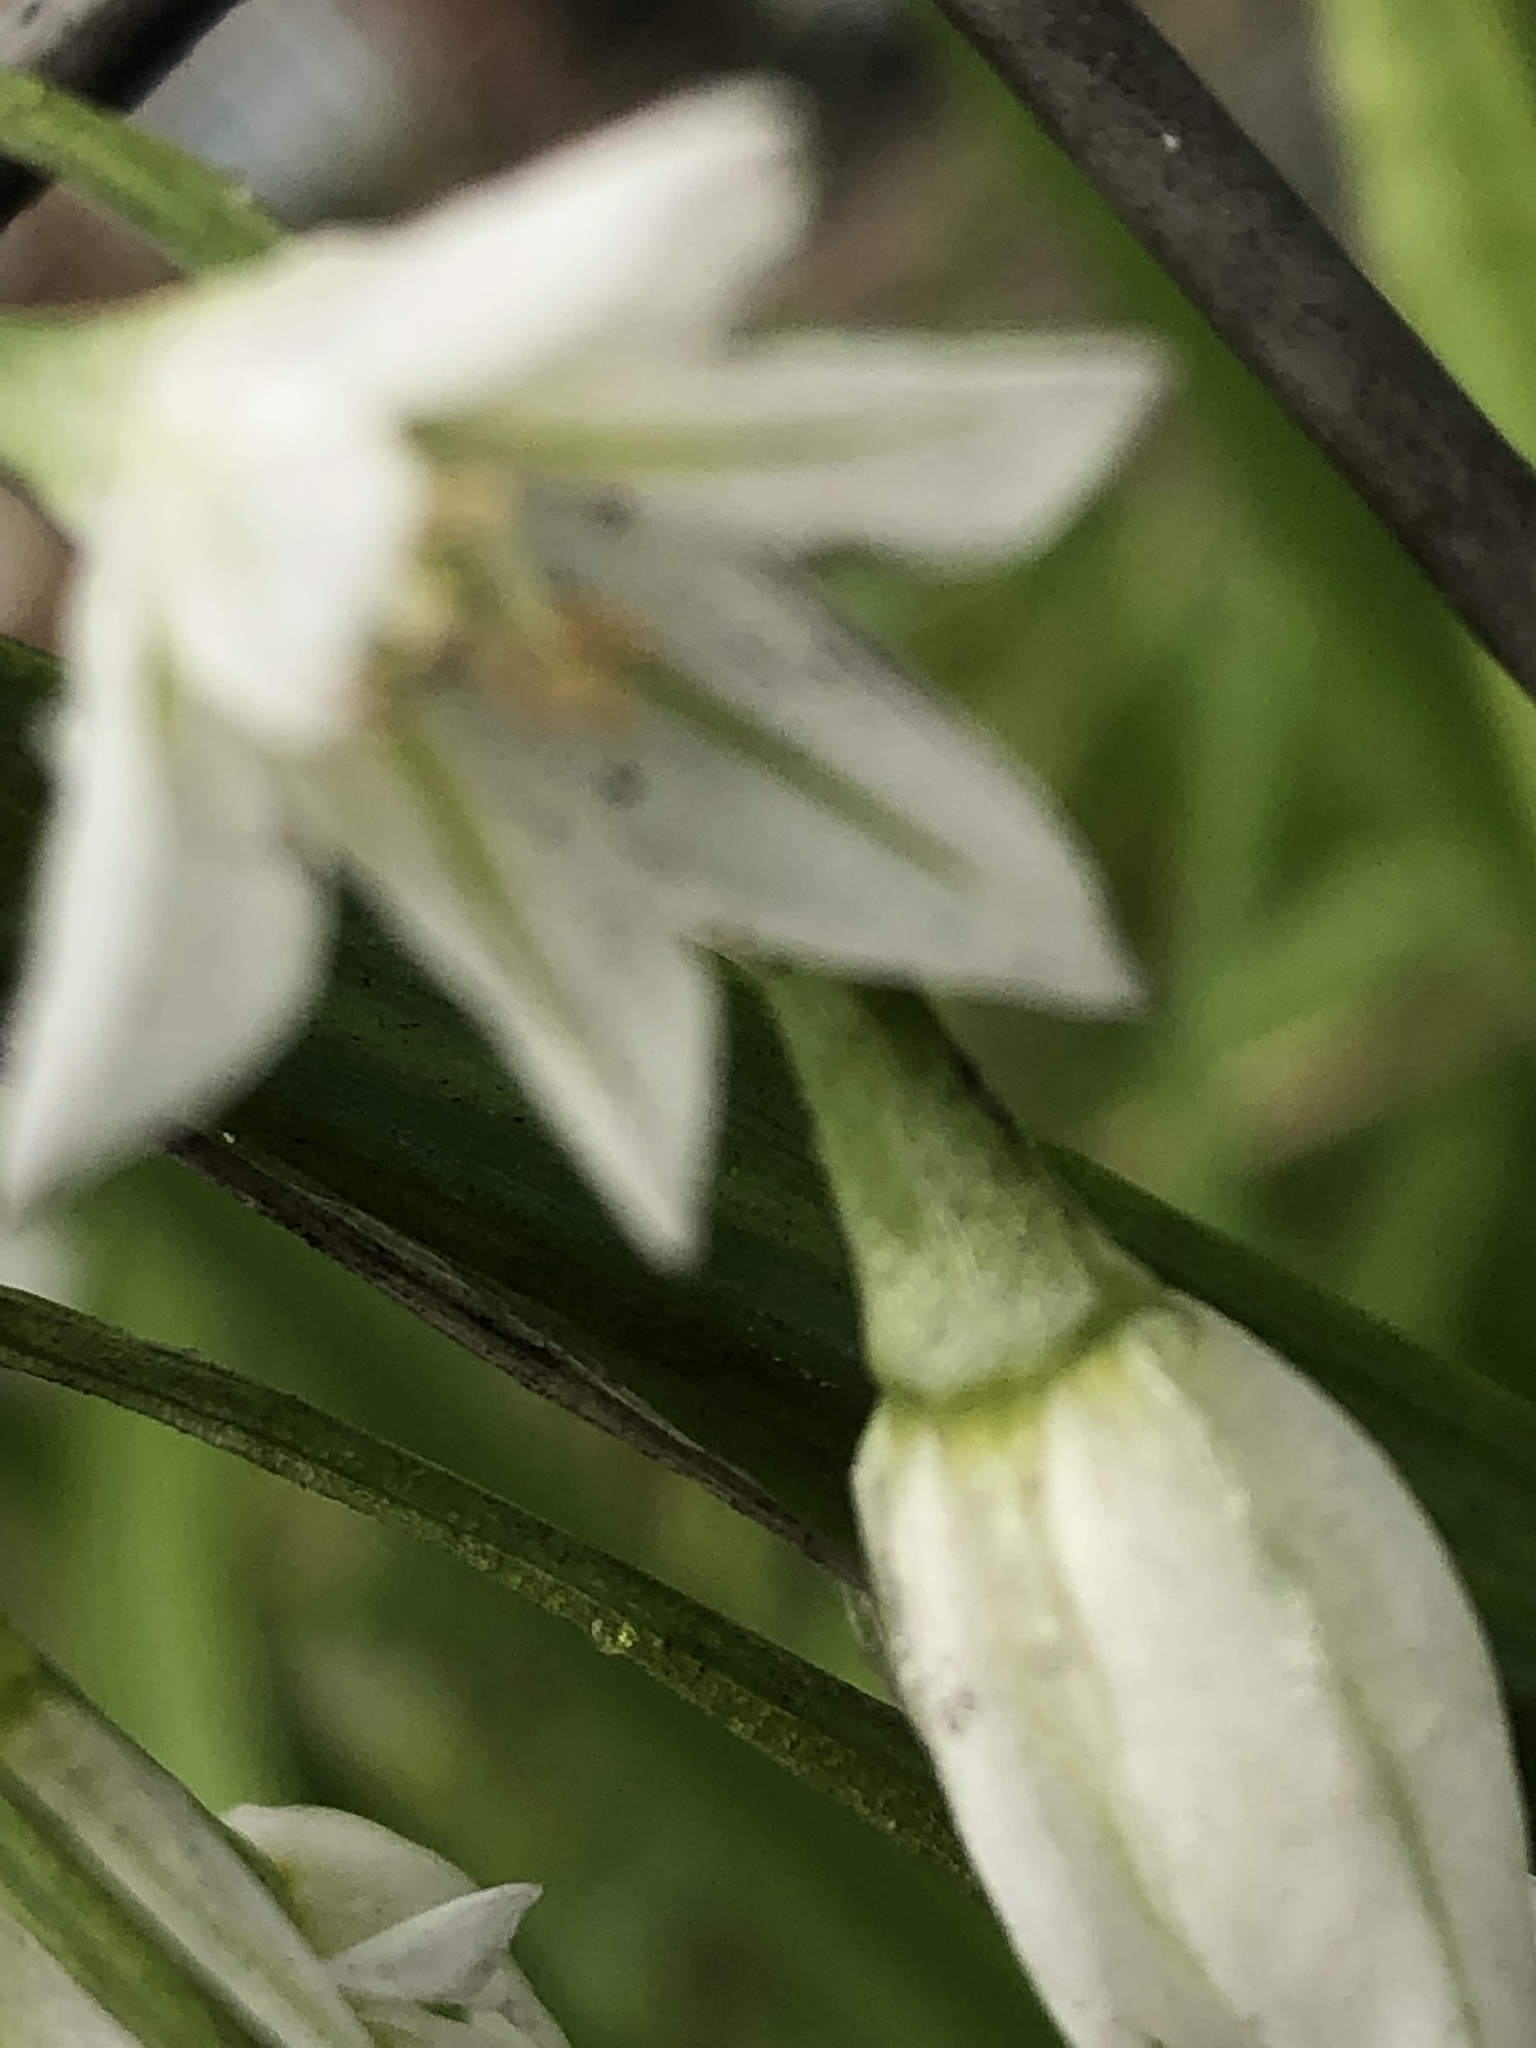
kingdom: Plantae
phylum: Tracheophyta
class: Liliopsida
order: Asparagales
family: Amaryllidaceae
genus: Allium
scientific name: Allium triquetrum
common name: Three-cornered garlic
